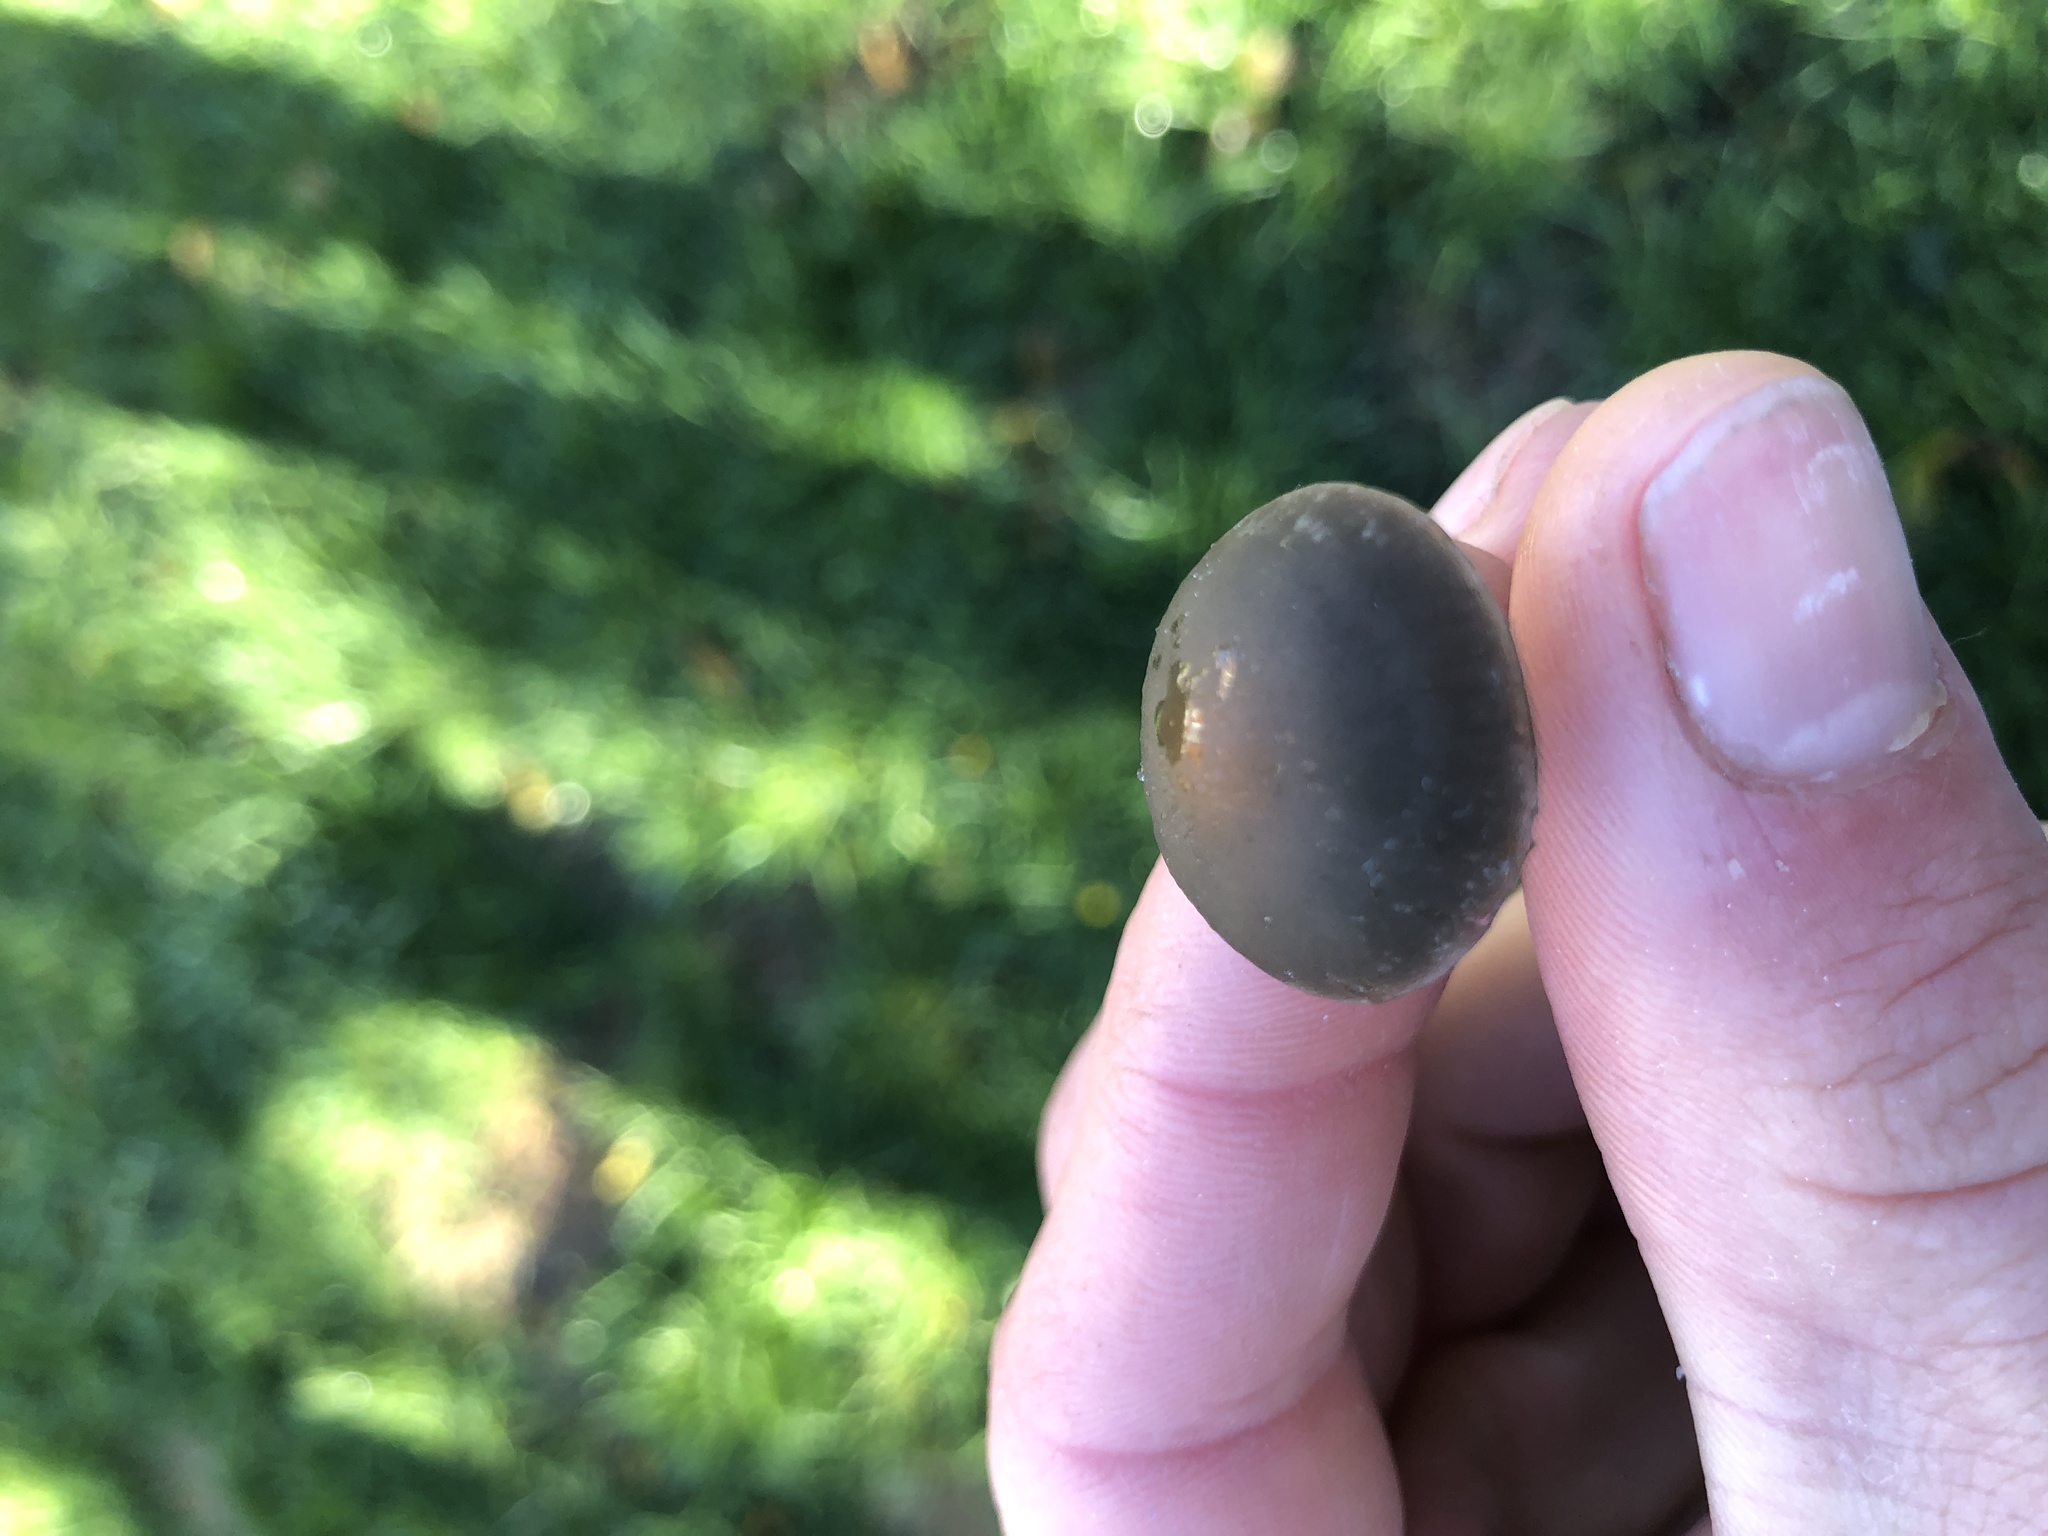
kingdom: Fungi
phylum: Basidiomycota
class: Agaricomycetes
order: Agaricales
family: Bolbitiaceae
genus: Panaeolus
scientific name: Panaeolus olivaceus
